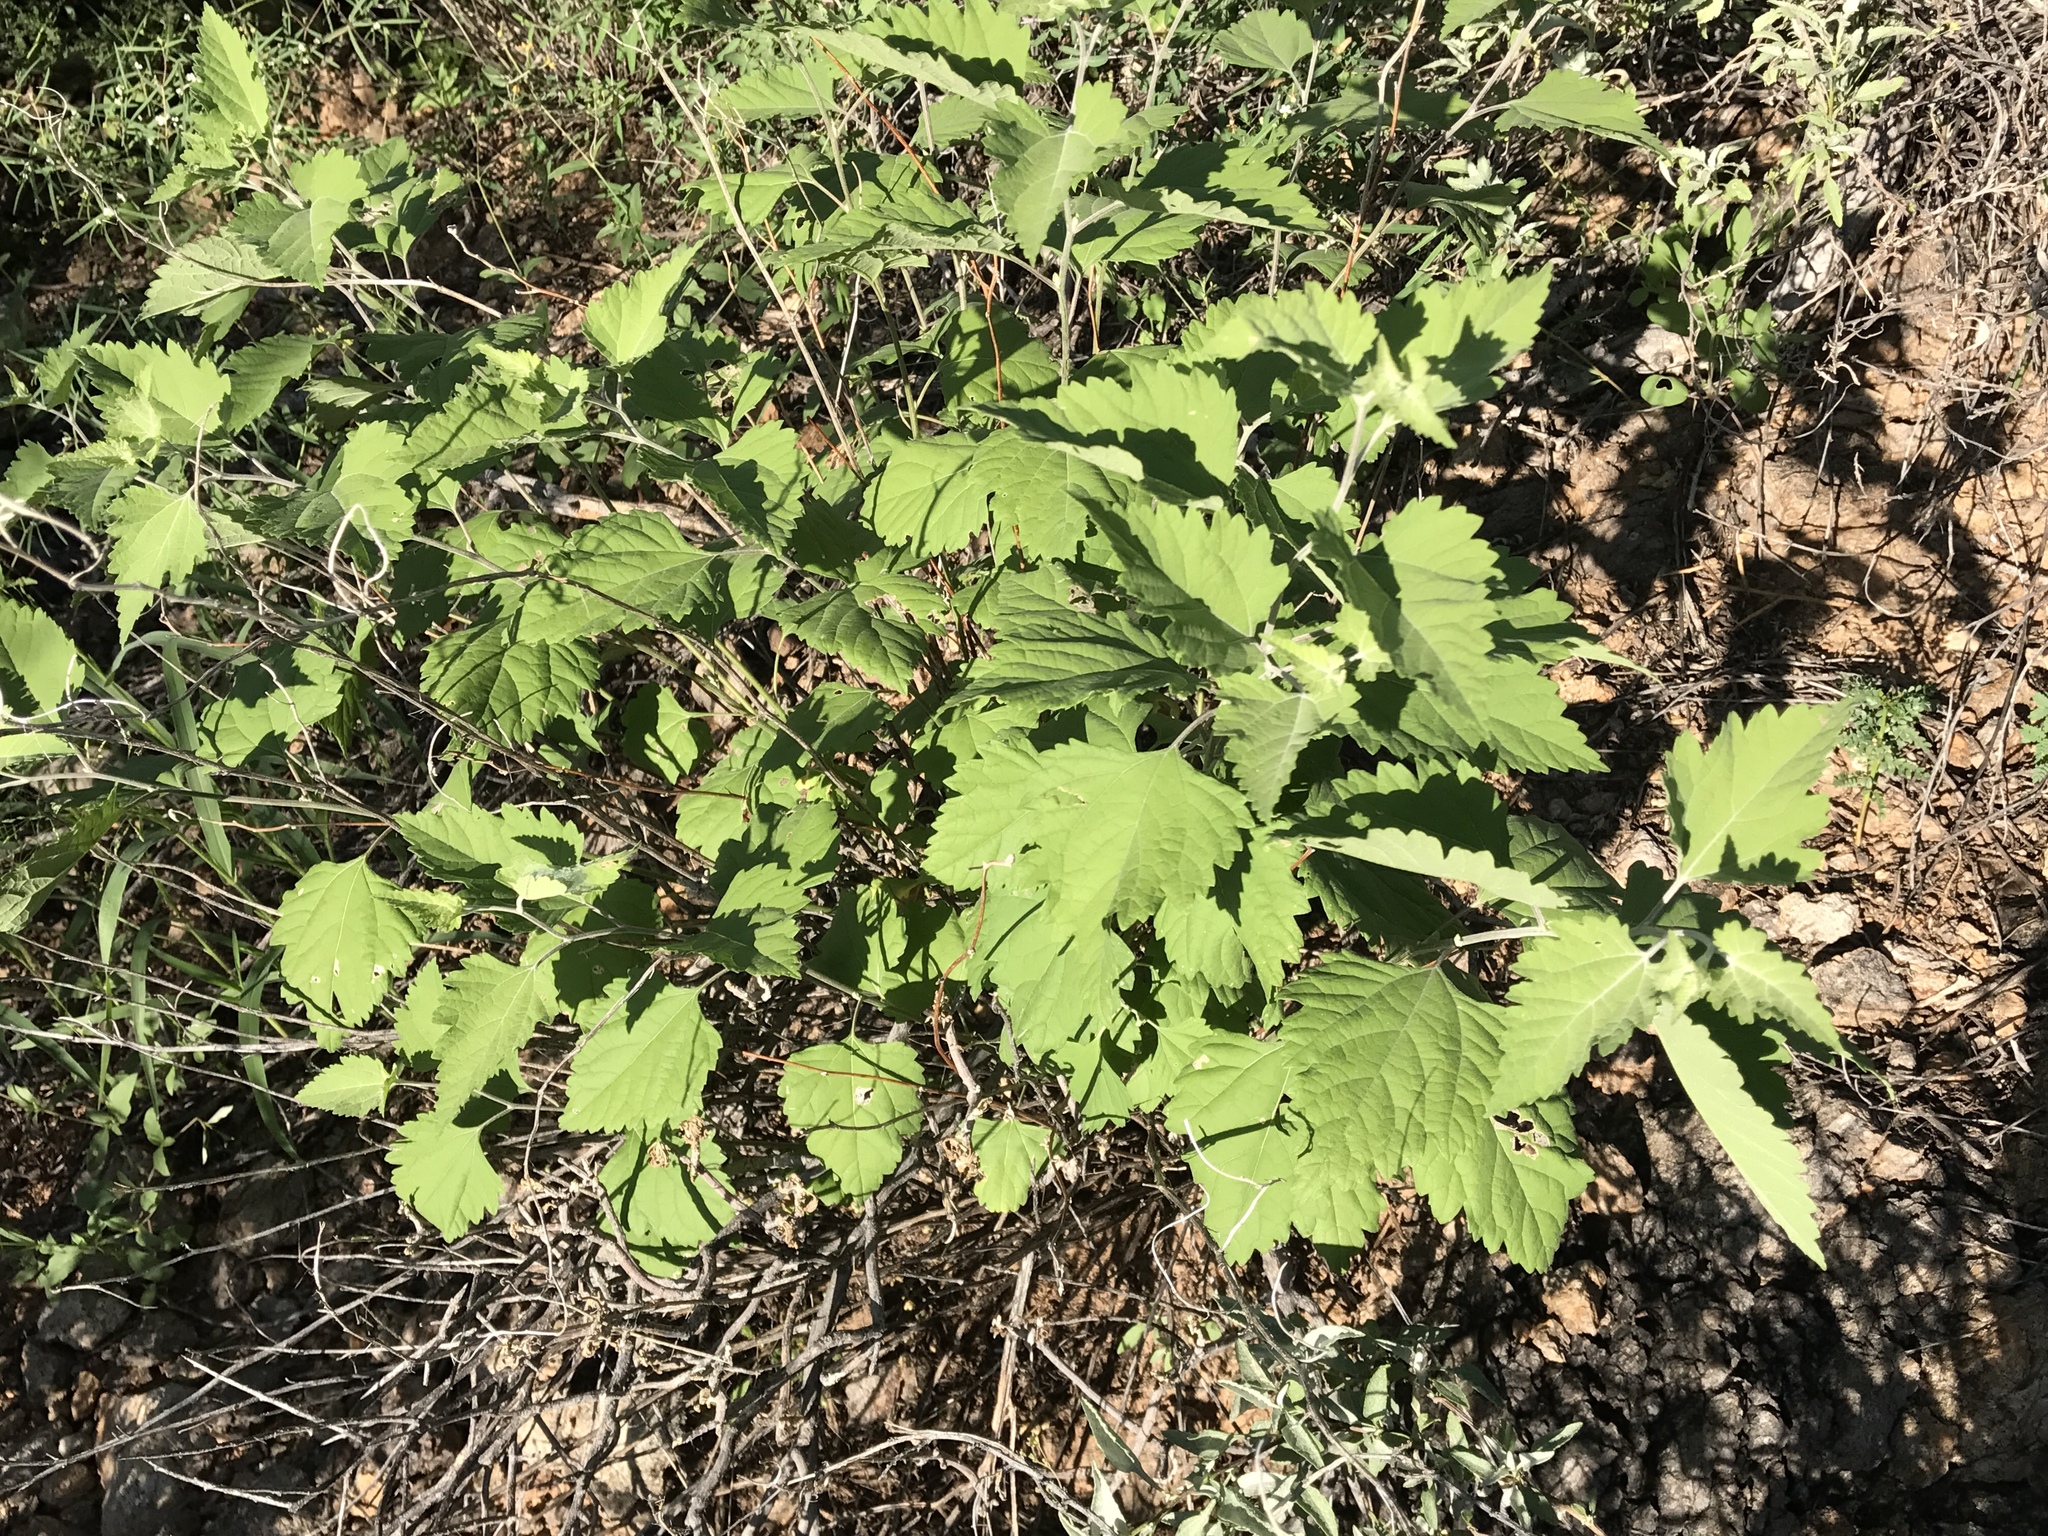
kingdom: Plantae
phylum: Tracheophyta
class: Magnoliopsida
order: Asterales
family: Asteraceae
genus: Ambrosia
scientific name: Ambrosia cordifolia
